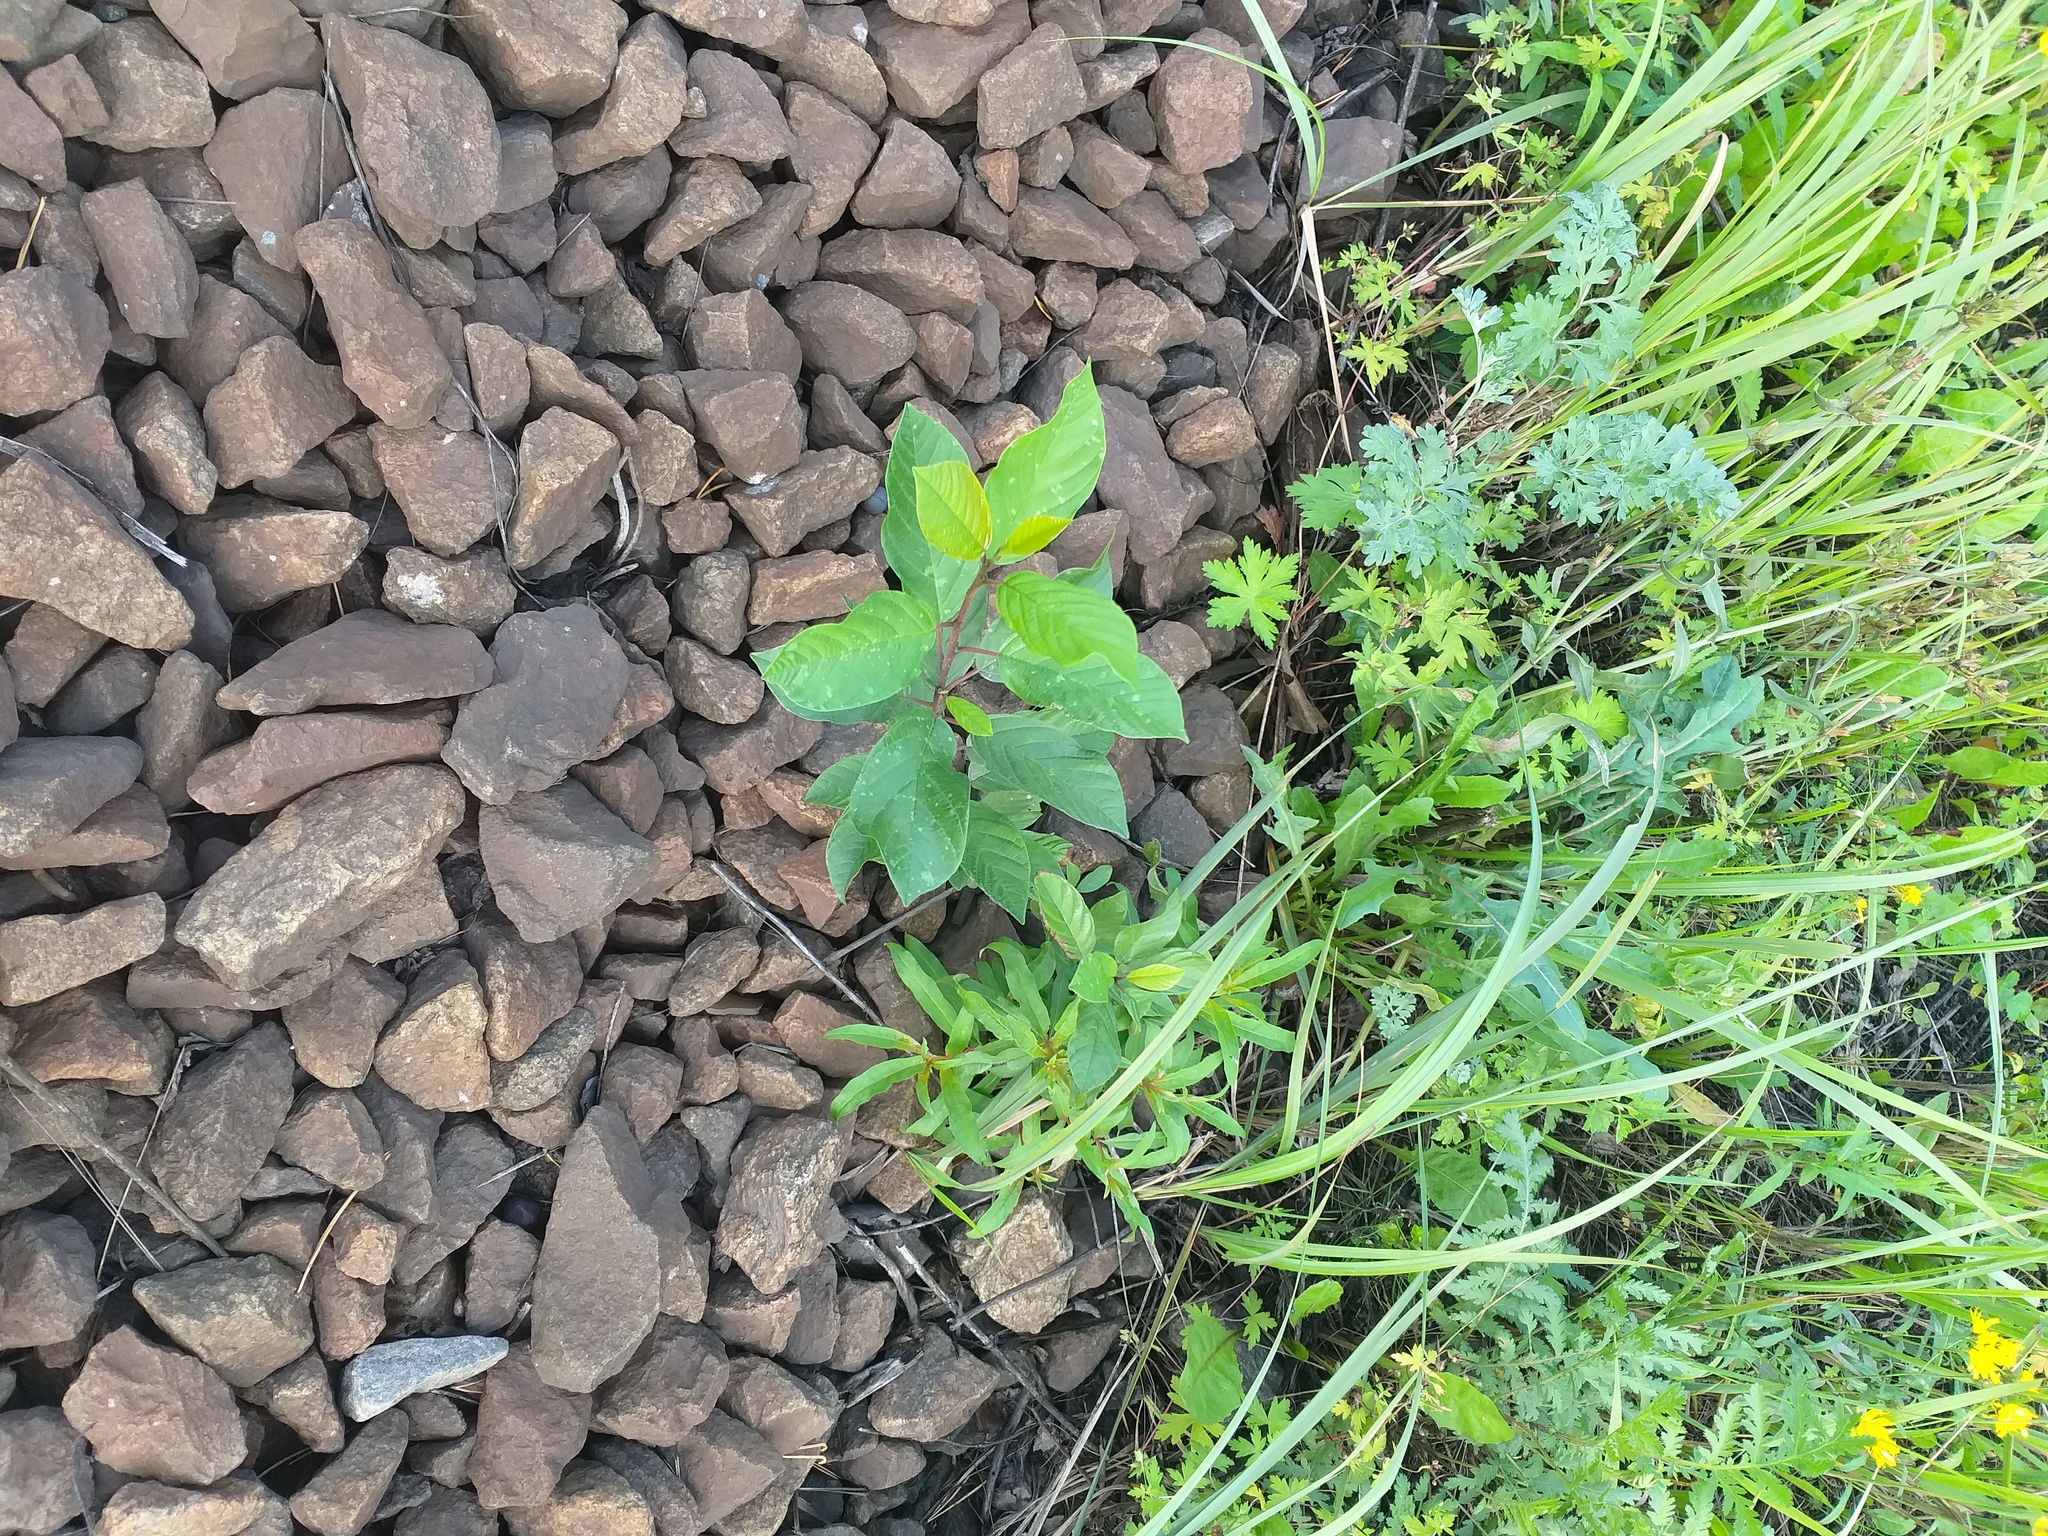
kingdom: Plantae
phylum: Tracheophyta
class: Magnoliopsida
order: Rosales
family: Rhamnaceae
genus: Frangula
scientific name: Frangula alnus
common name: Alder buckthorn
